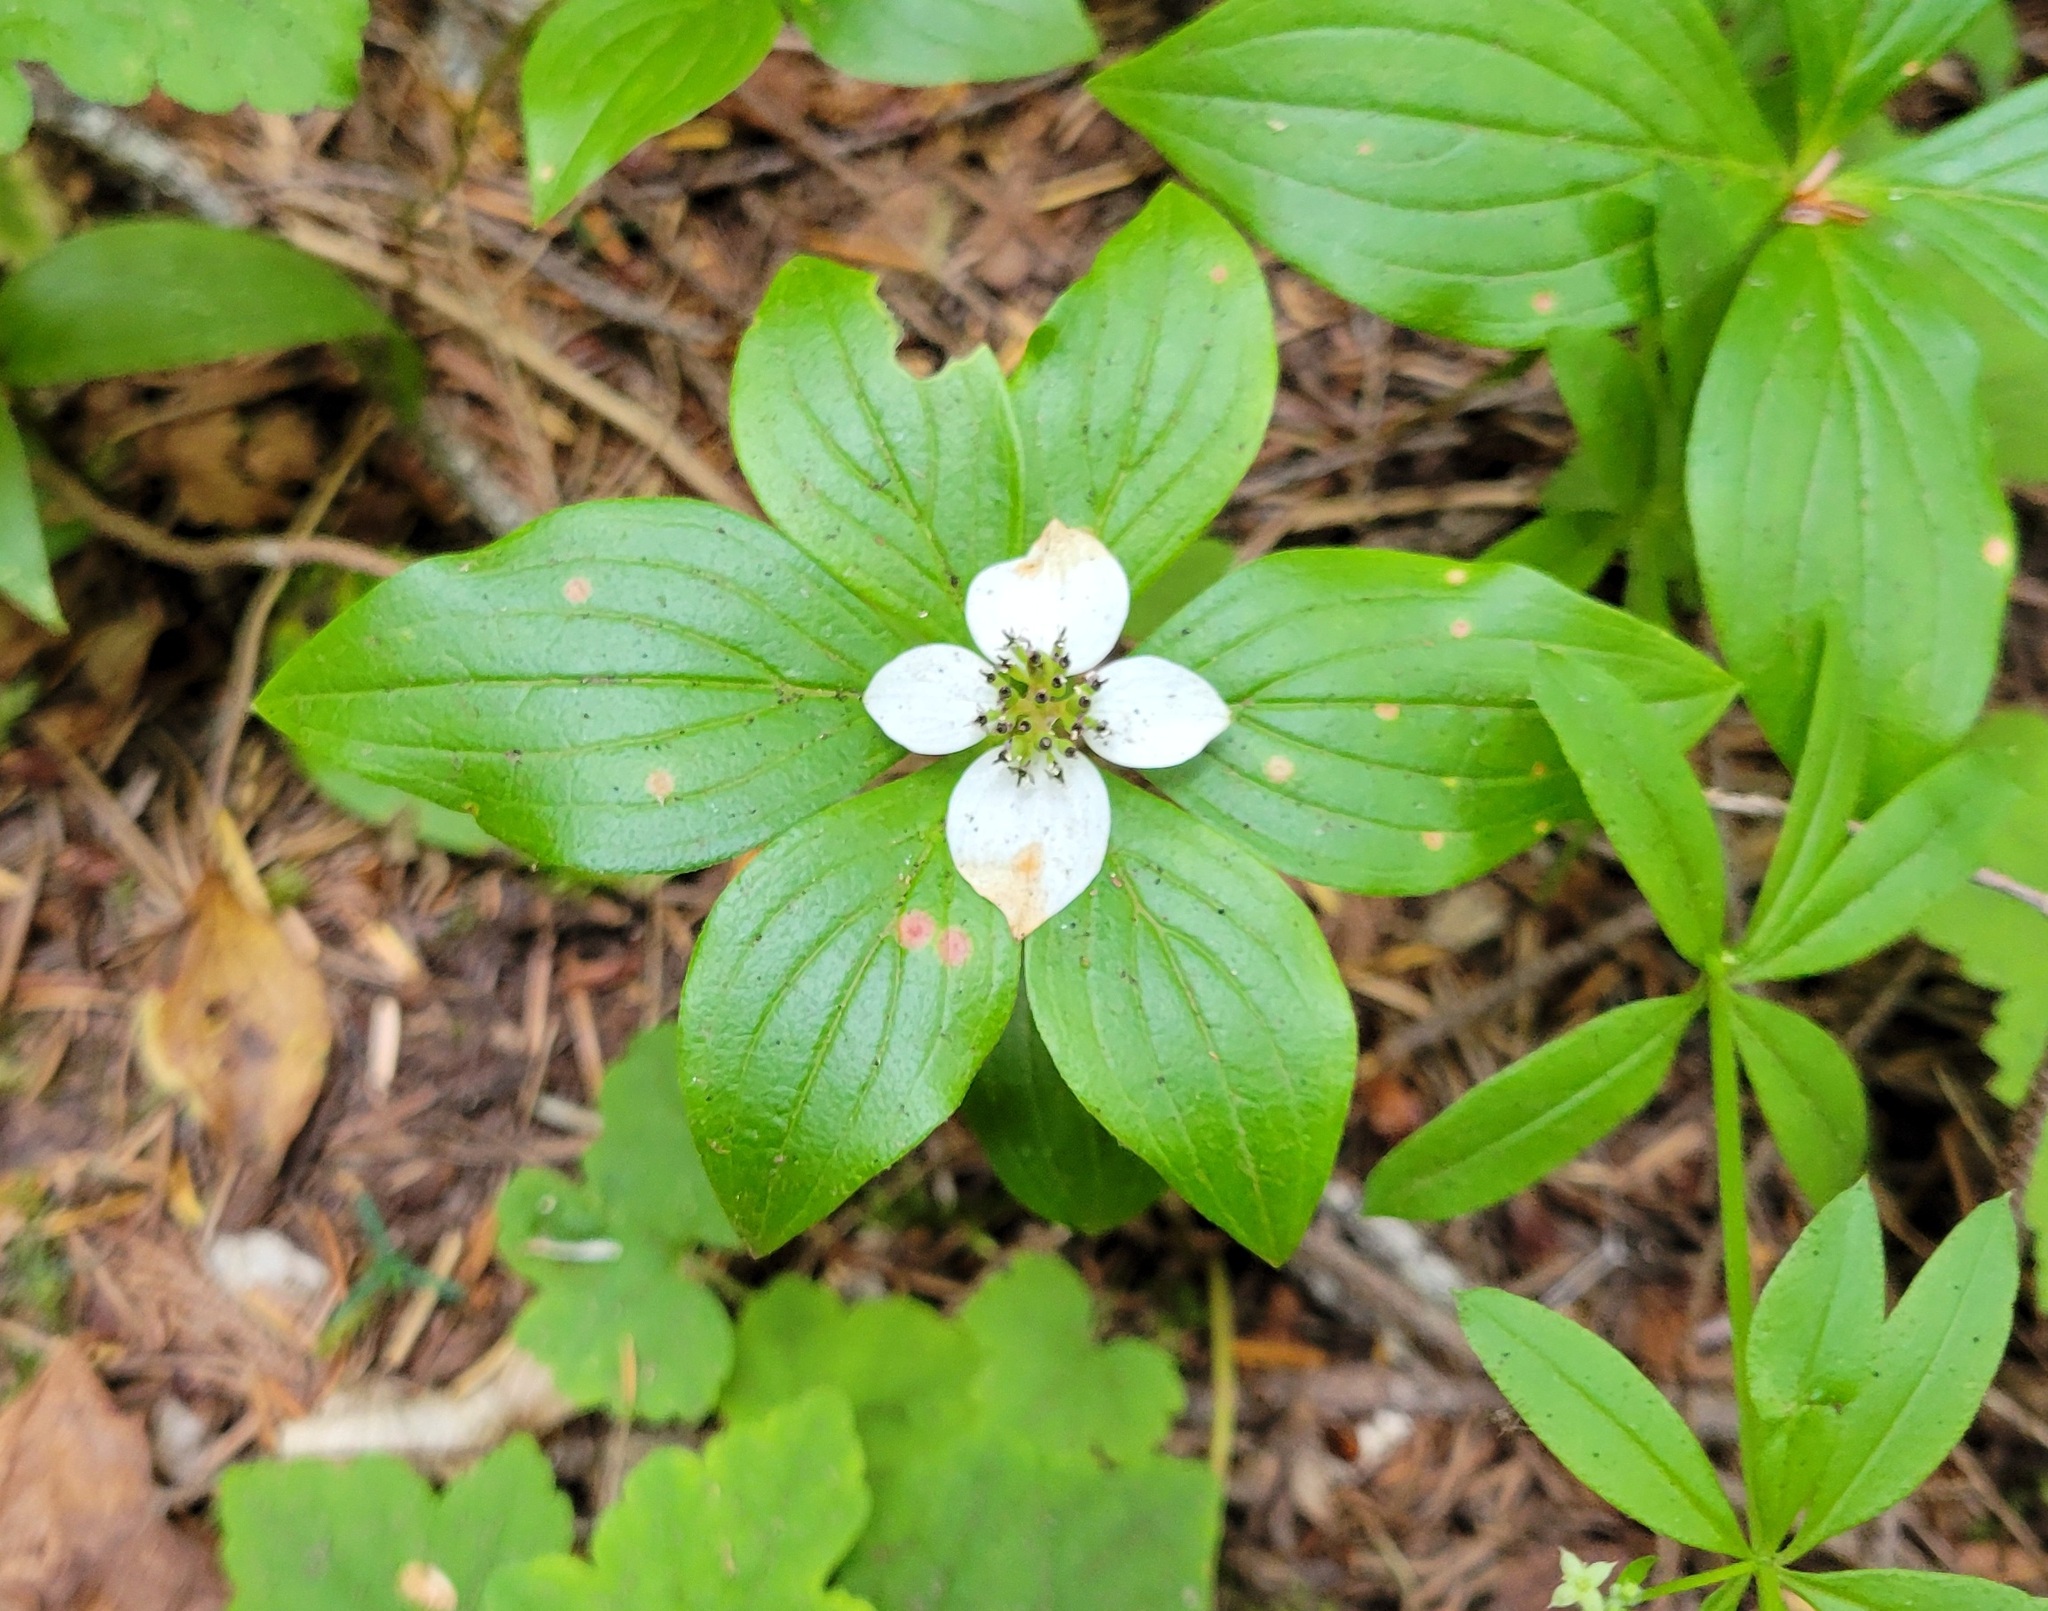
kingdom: Plantae
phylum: Tracheophyta
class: Magnoliopsida
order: Cornales
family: Cornaceae
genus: Cornus
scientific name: Cornus unalaschkensis
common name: Alaska bunchberry
